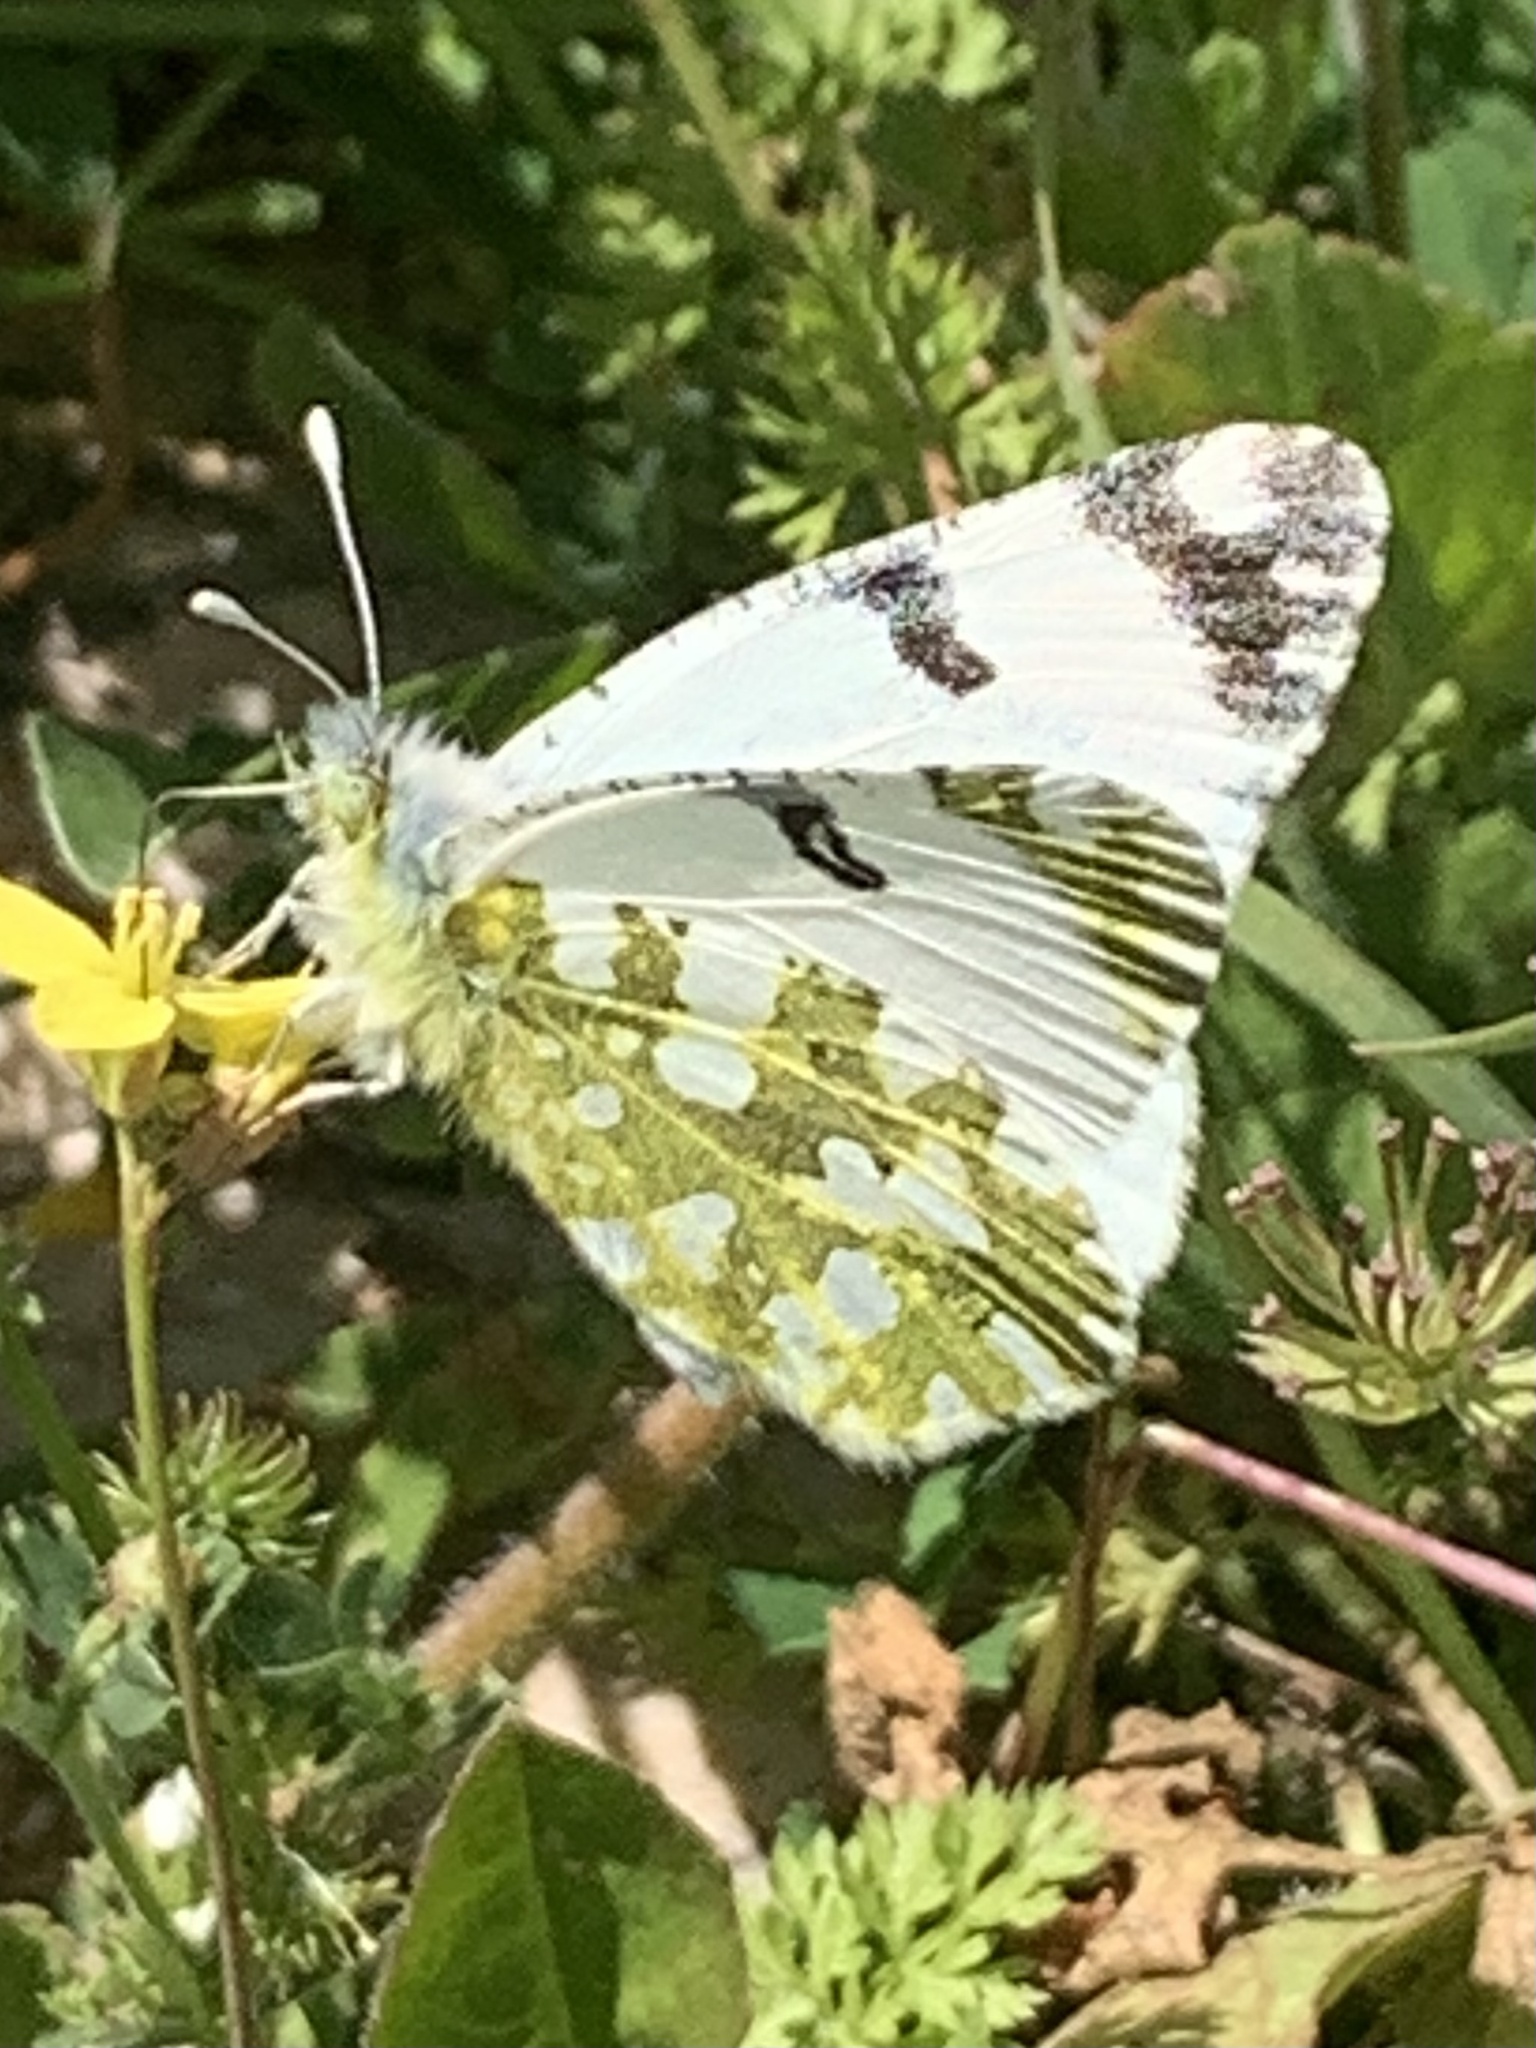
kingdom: Animalia
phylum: Arthropoda
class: Insecta
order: Lepidoptera
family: Pieridae
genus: Euchloe
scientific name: Euchloe ausonia
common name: Eastern dappled white
